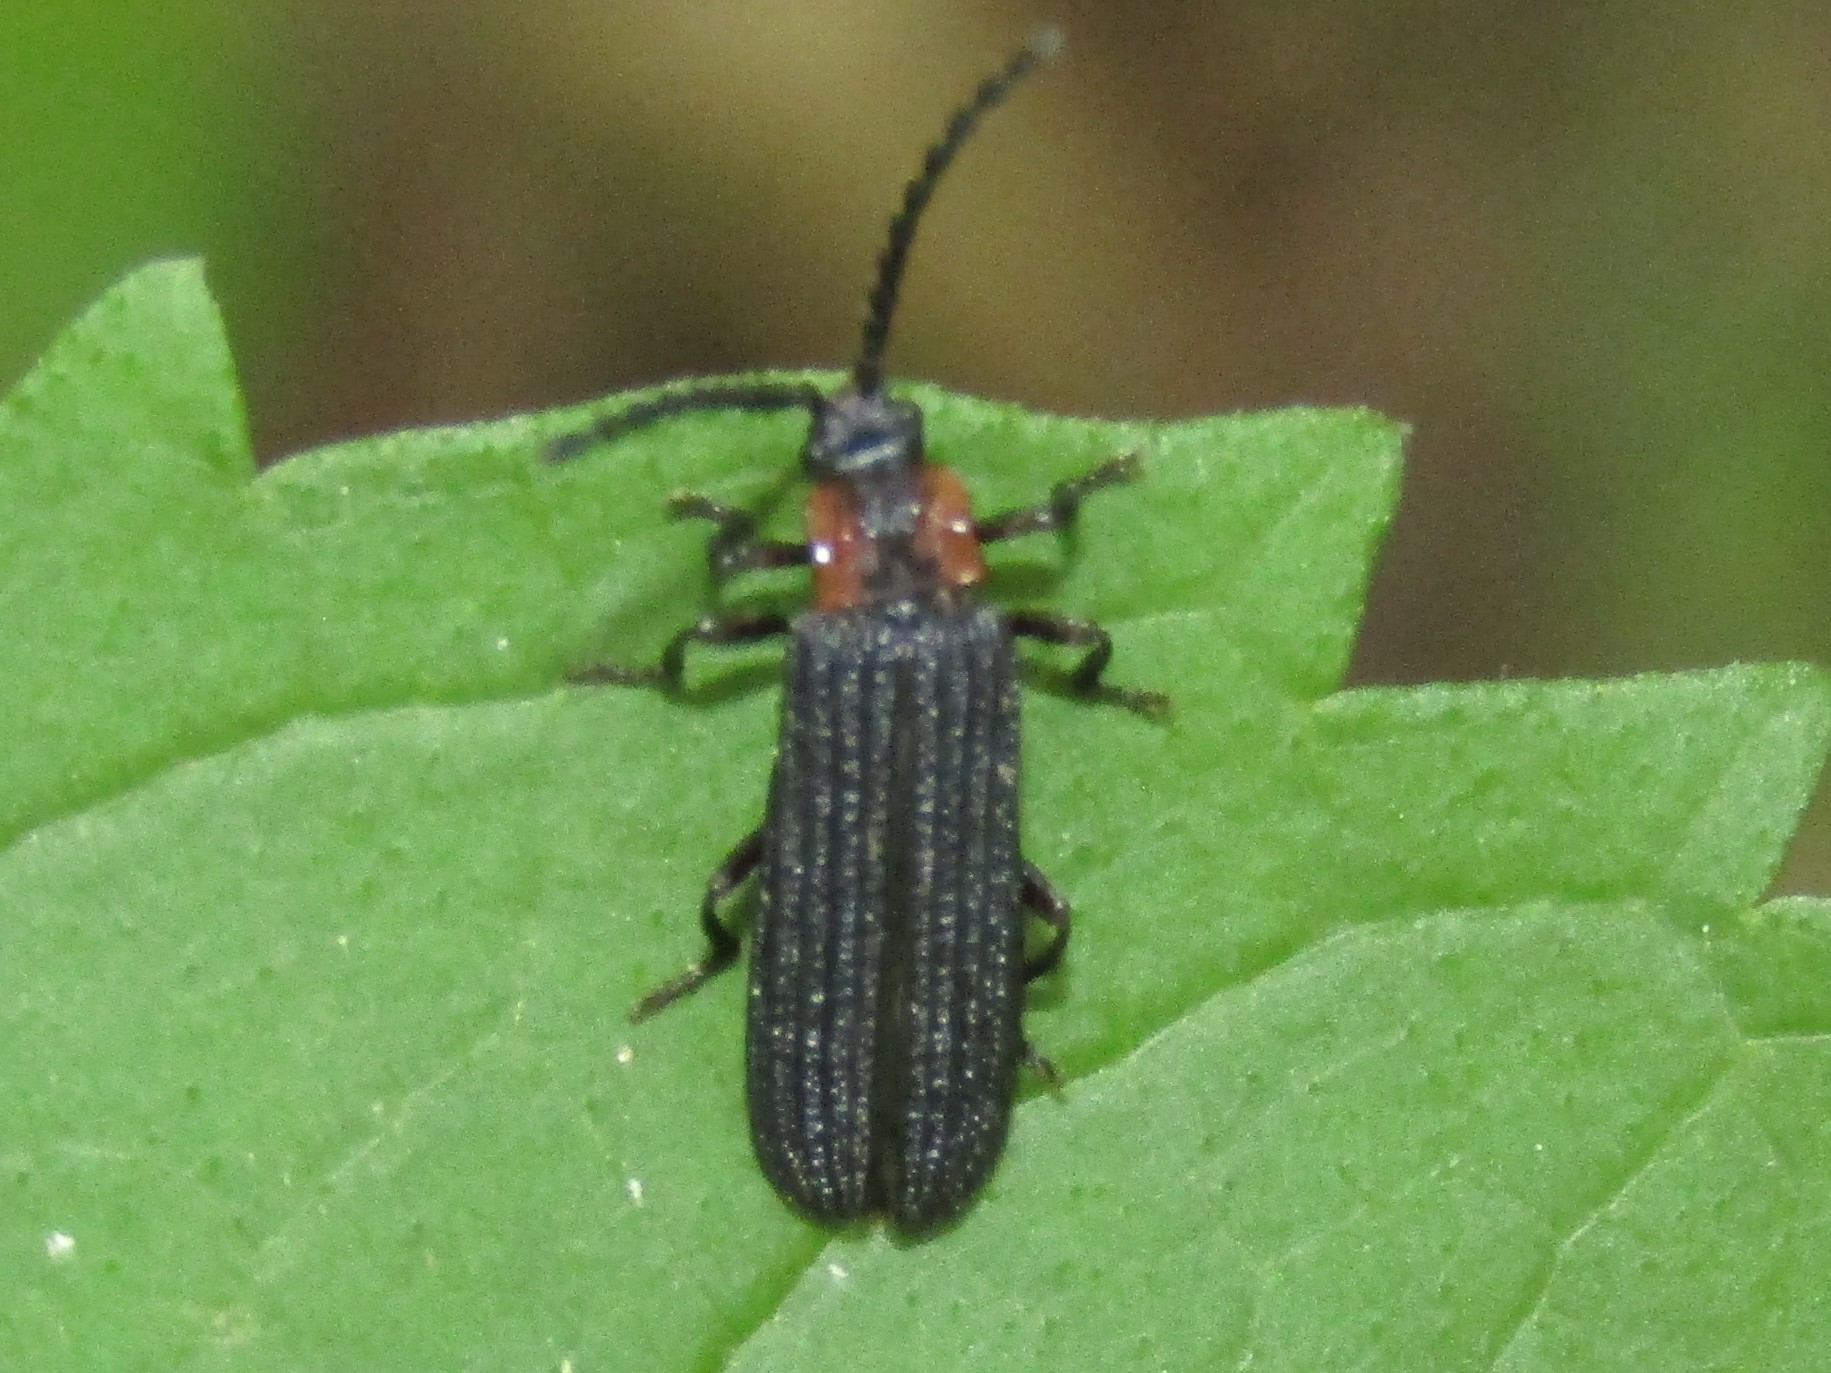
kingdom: Animalia
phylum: Arthropoda
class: Insecta
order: Coleoptera
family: Lycidae
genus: Erotides
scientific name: Erotides sculptilis
